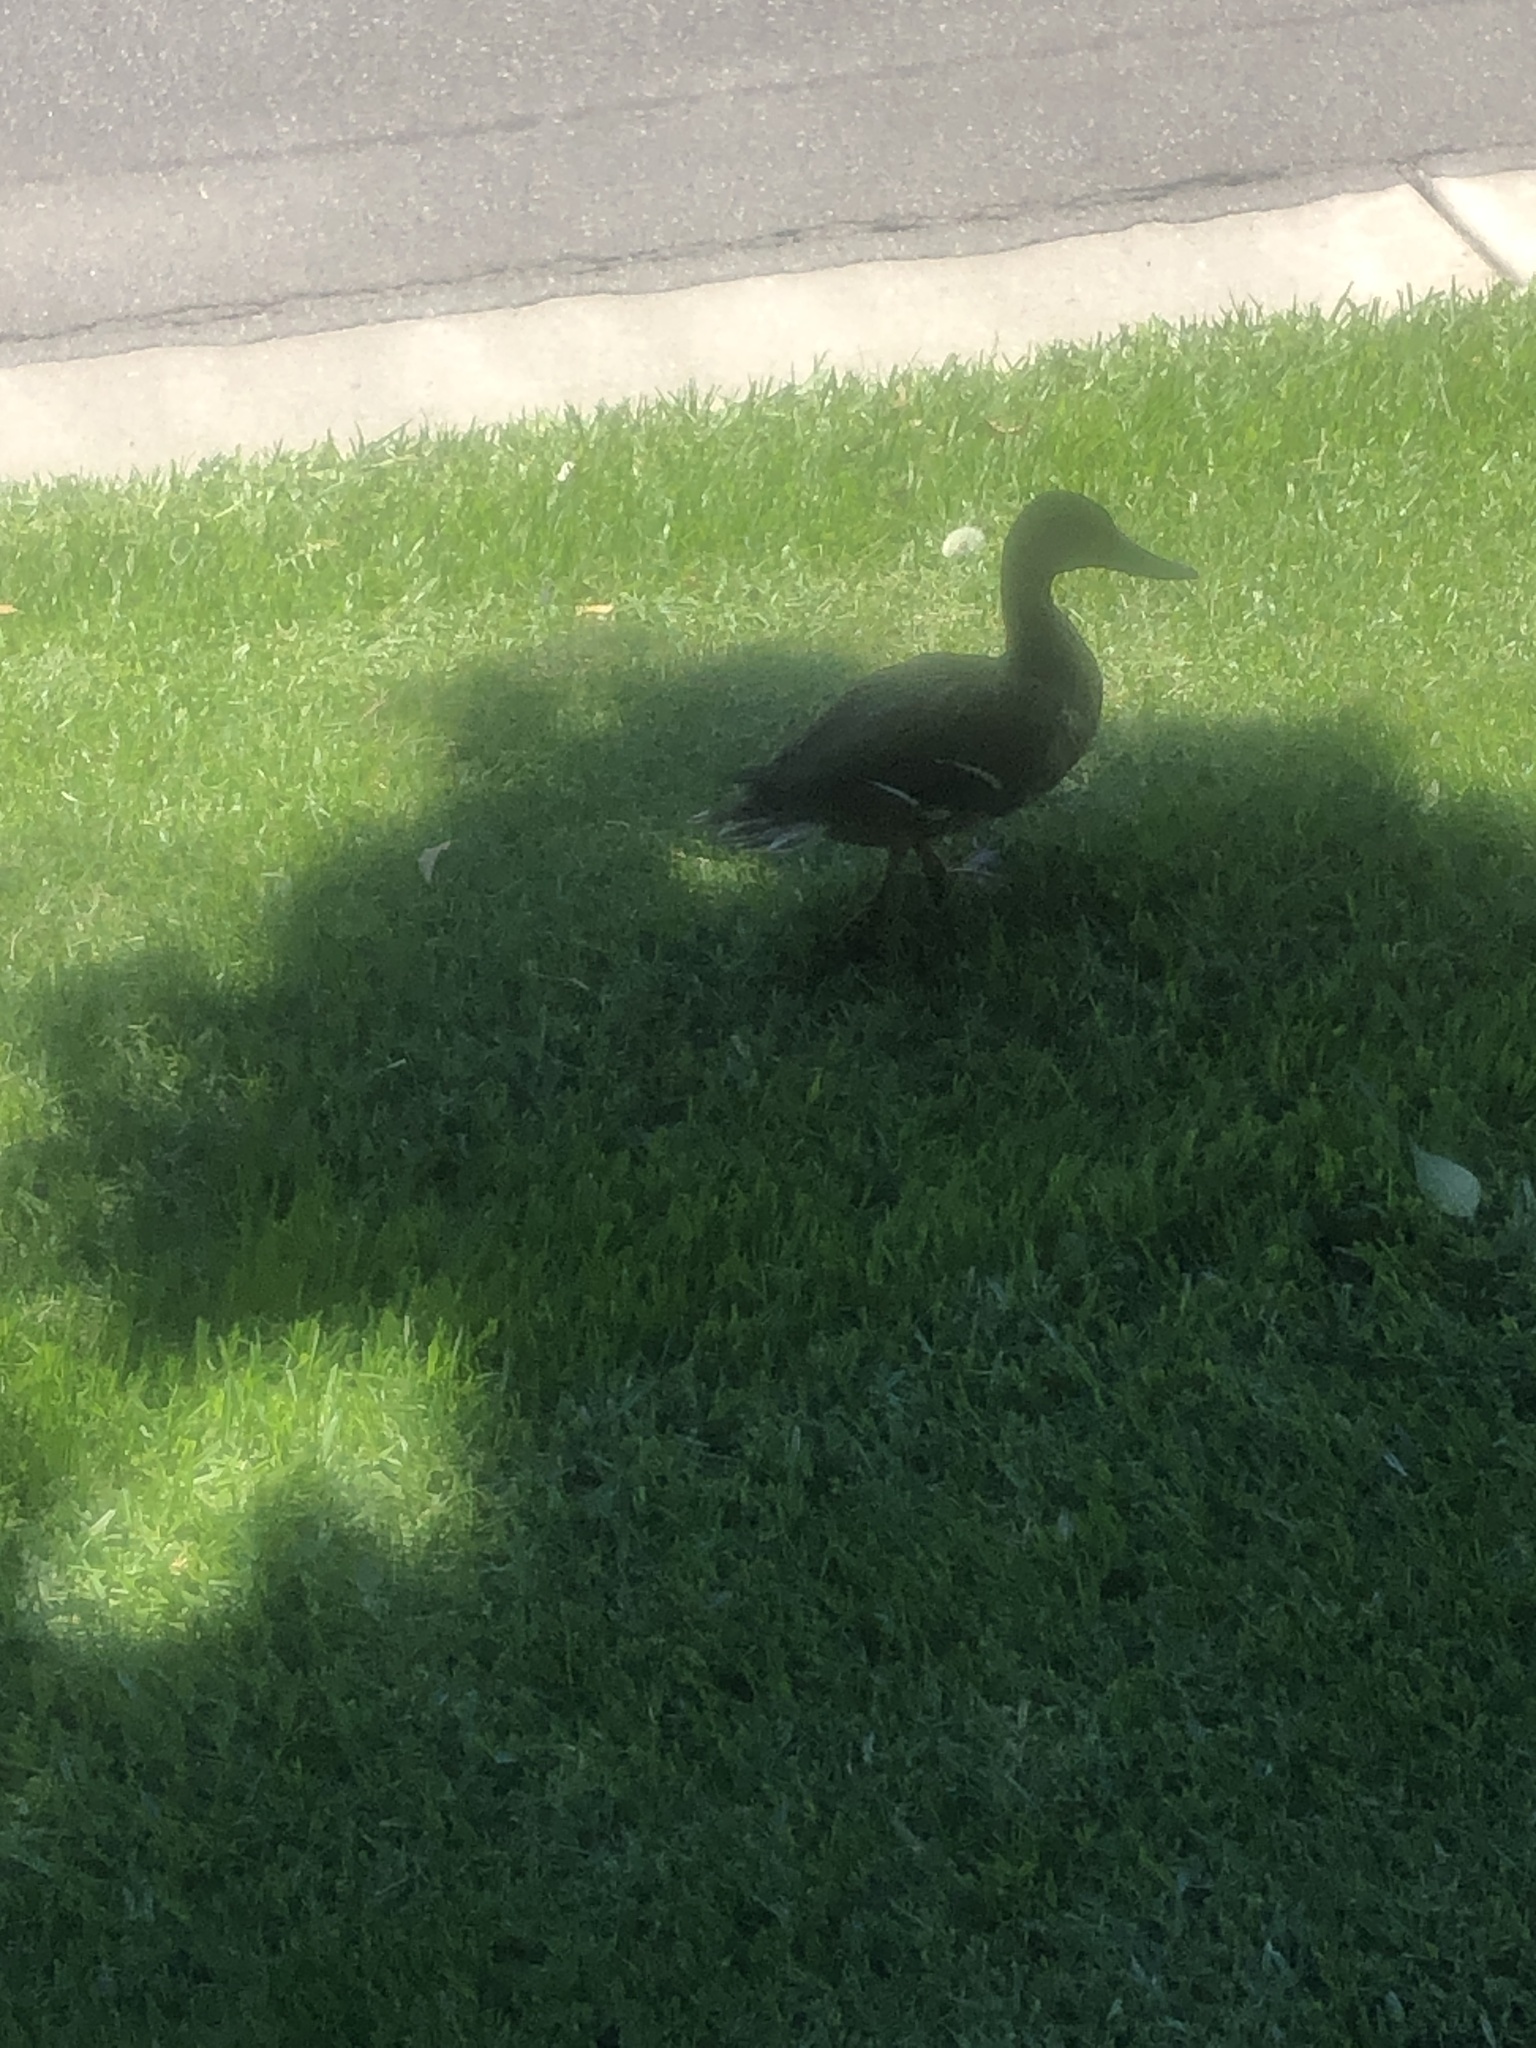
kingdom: Animalia
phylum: Chordata
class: Aves
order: Anseriformes
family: Anatidae
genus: Anas
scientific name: Anas platyrhynchos
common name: Mallard
